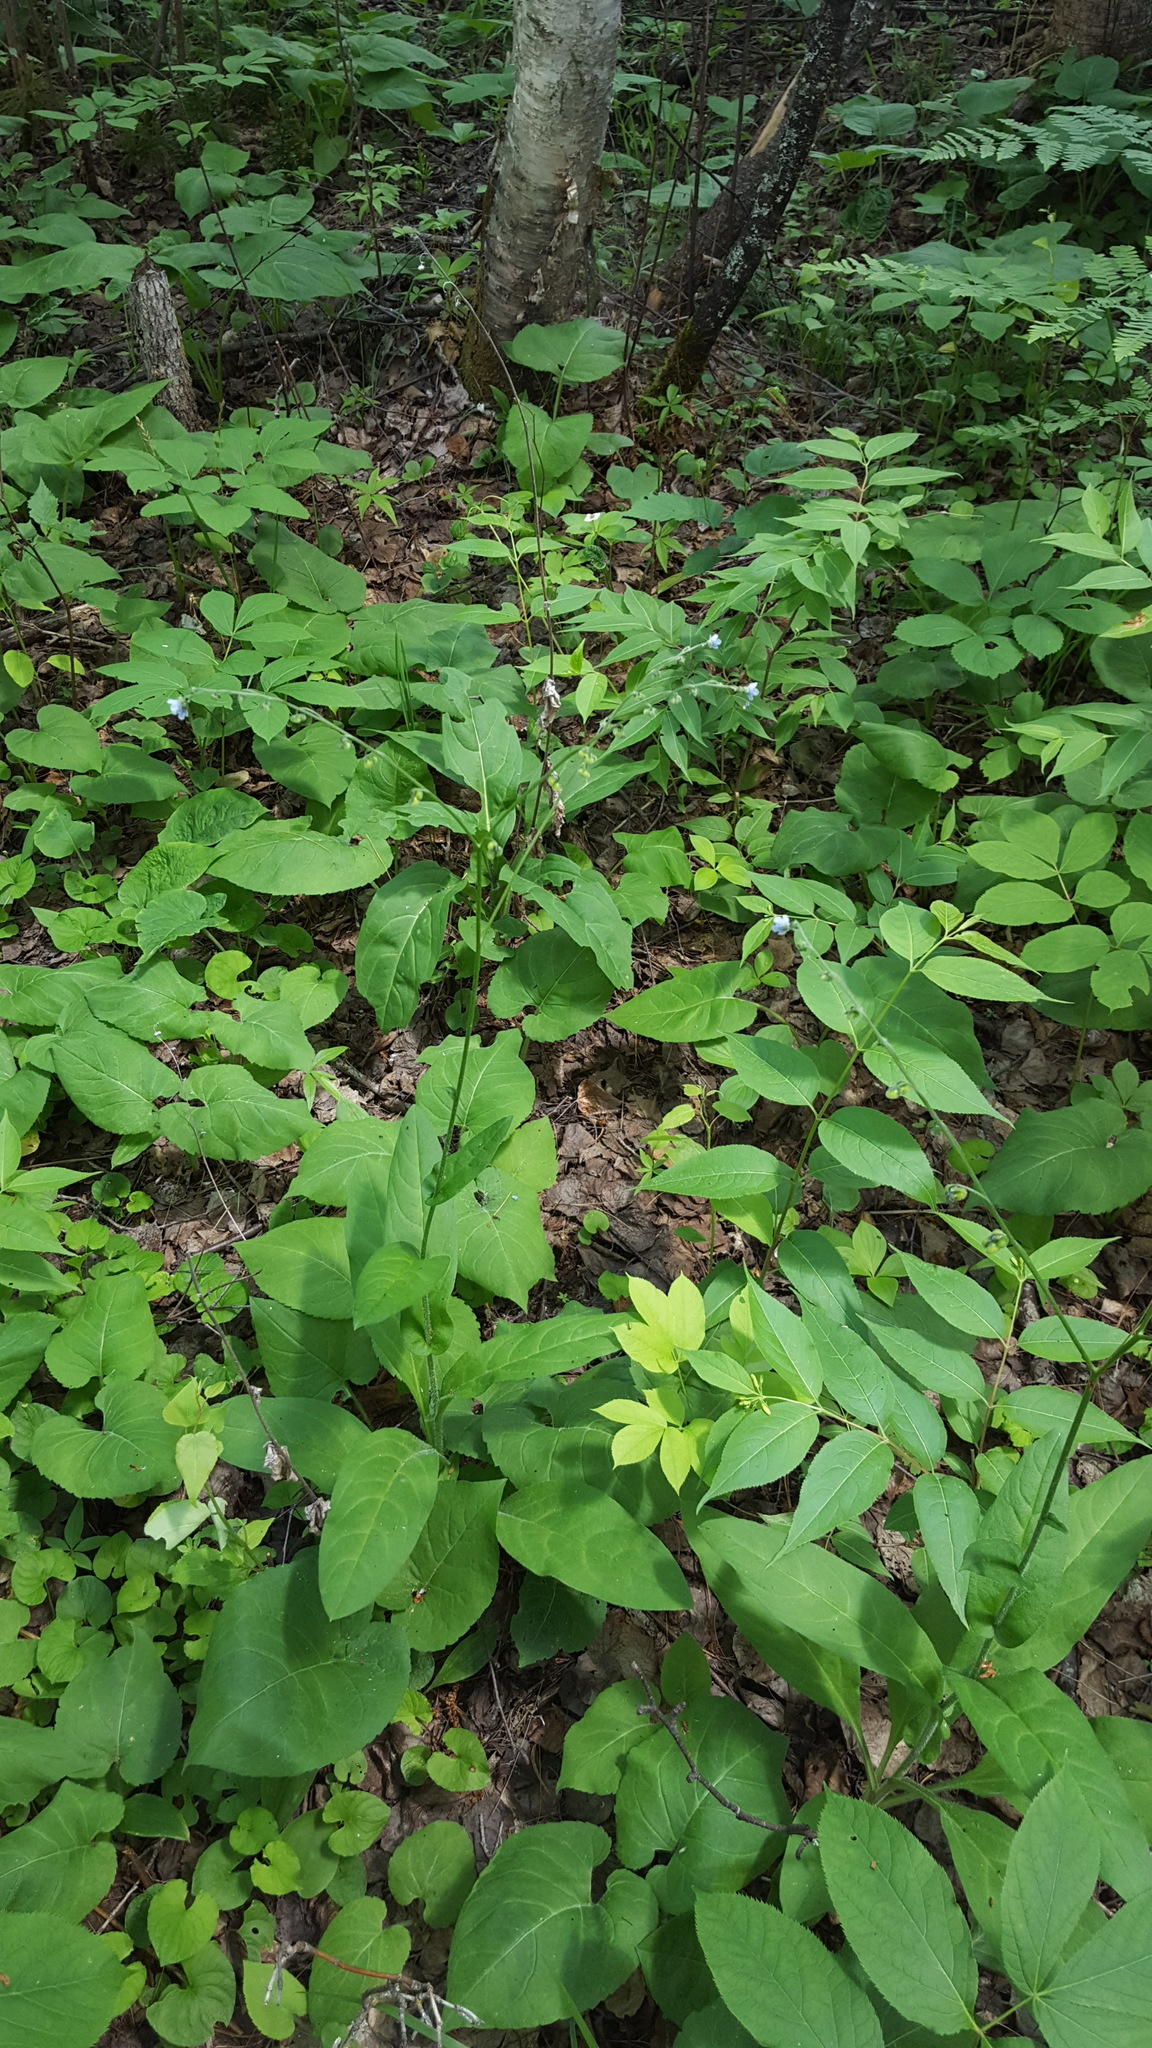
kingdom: Plantae
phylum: Tracheophyta
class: Magnoliopsida
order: Boraginales
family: Boraginaceae
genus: Andersonglossum
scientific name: Andersonglossum boreale
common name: Northern hound's-tongue
